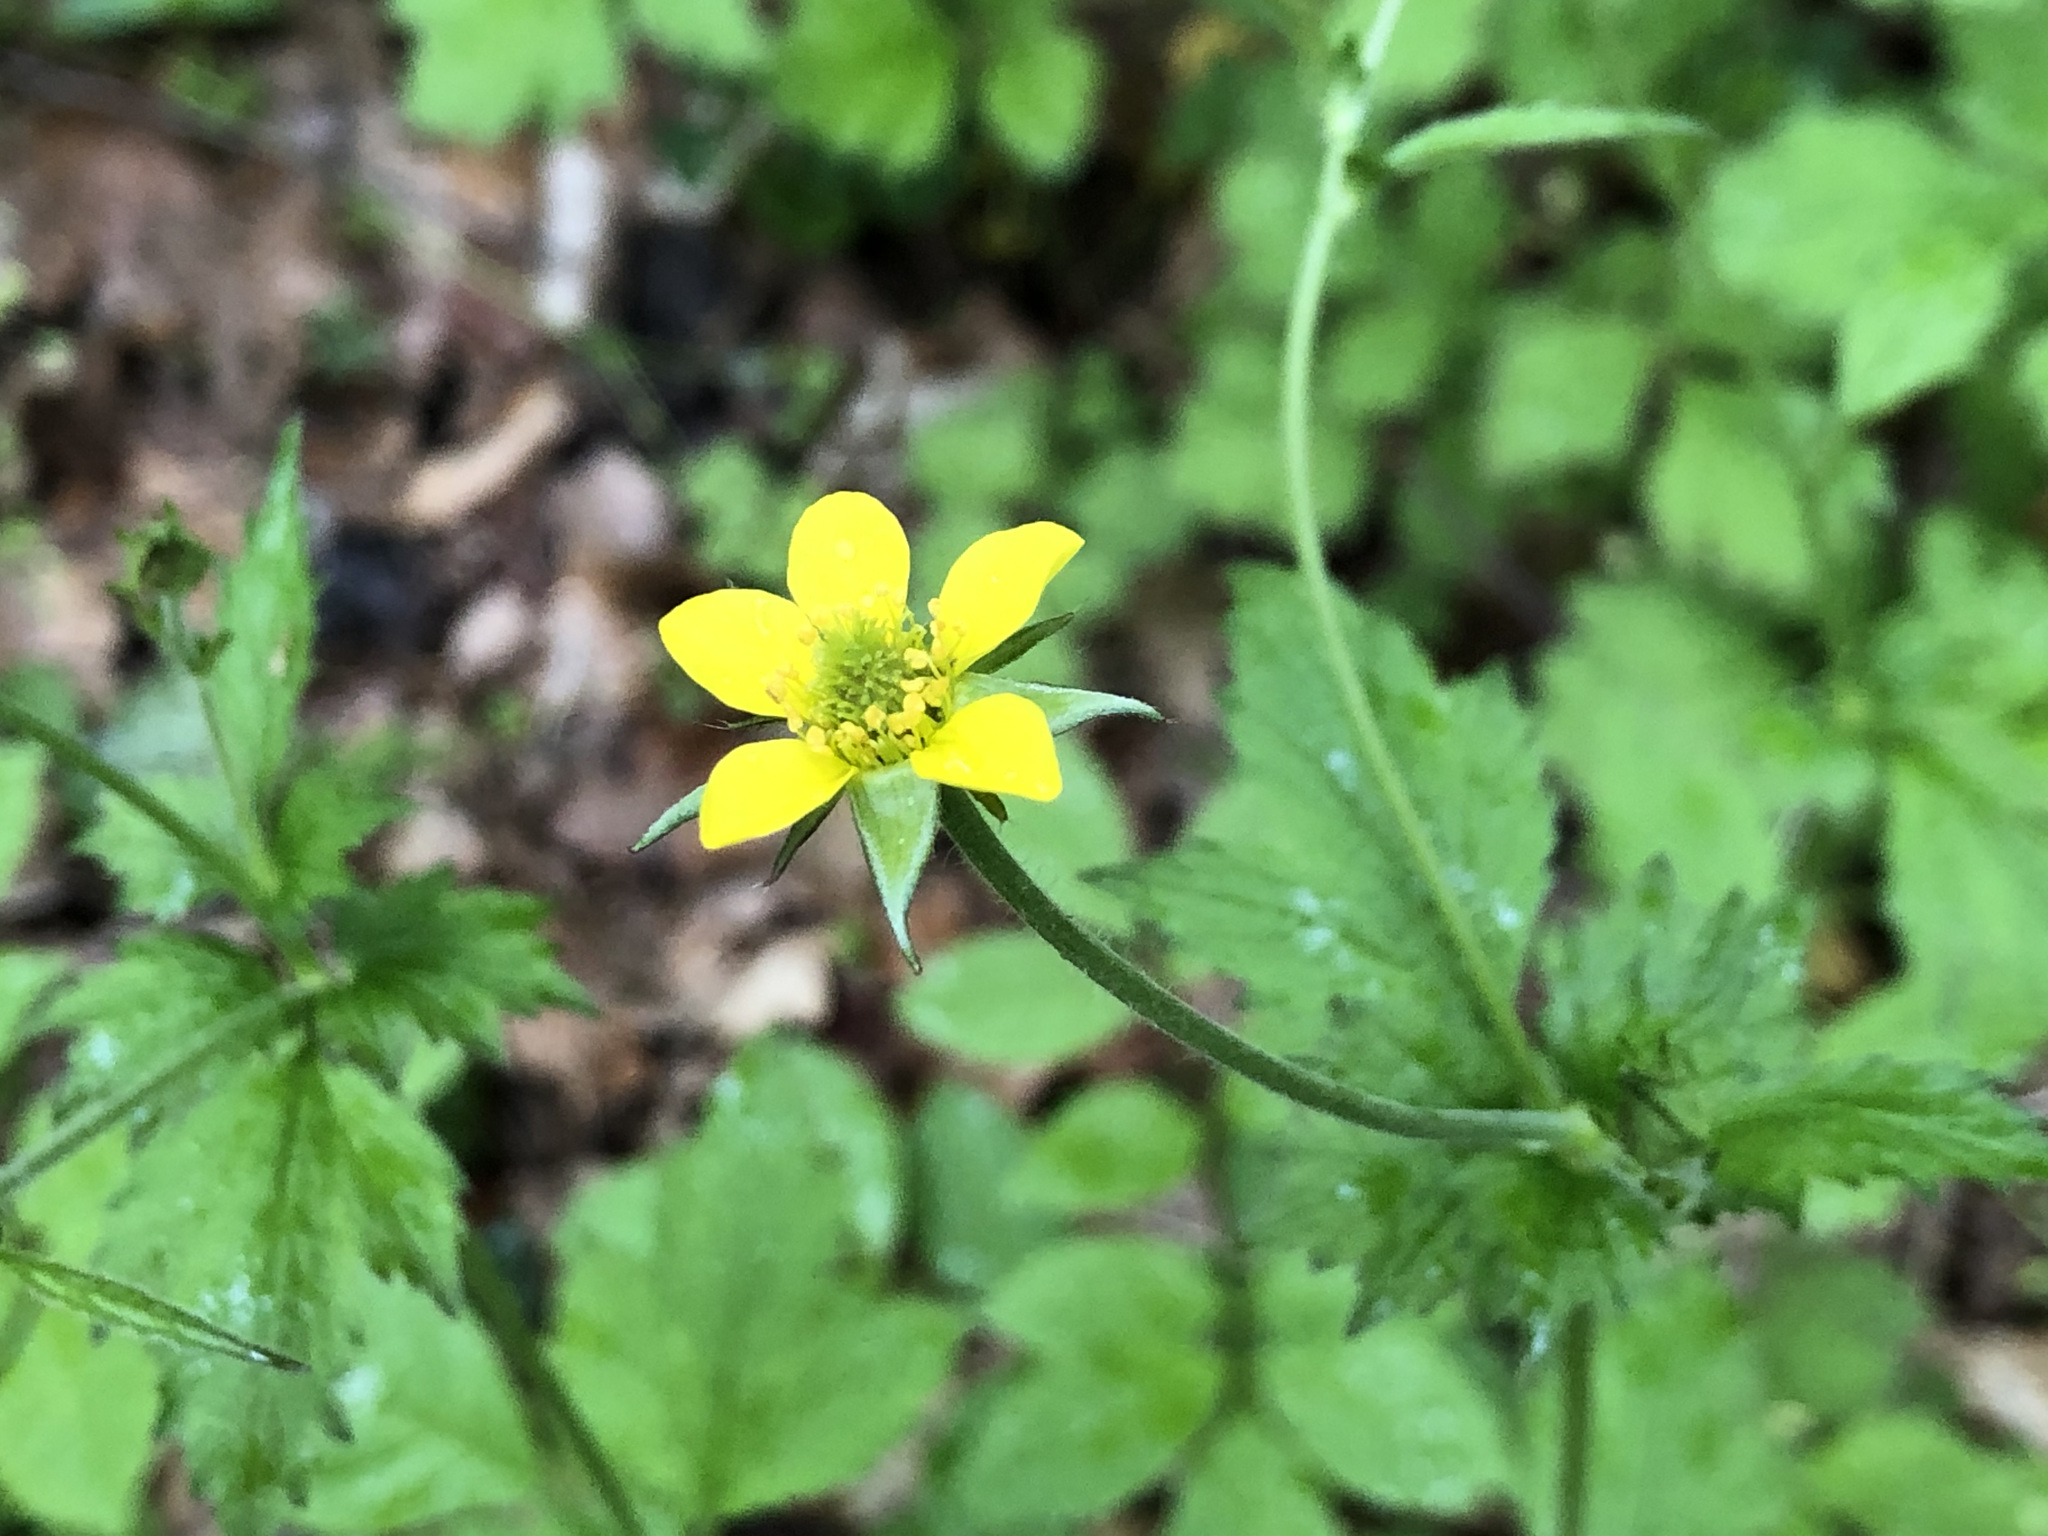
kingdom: Plantae
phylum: Tracheophyta
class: Magnoliopsida
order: Rosales
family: Rosaceae
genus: Geum
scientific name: Geum urbanum
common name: Wood avens
